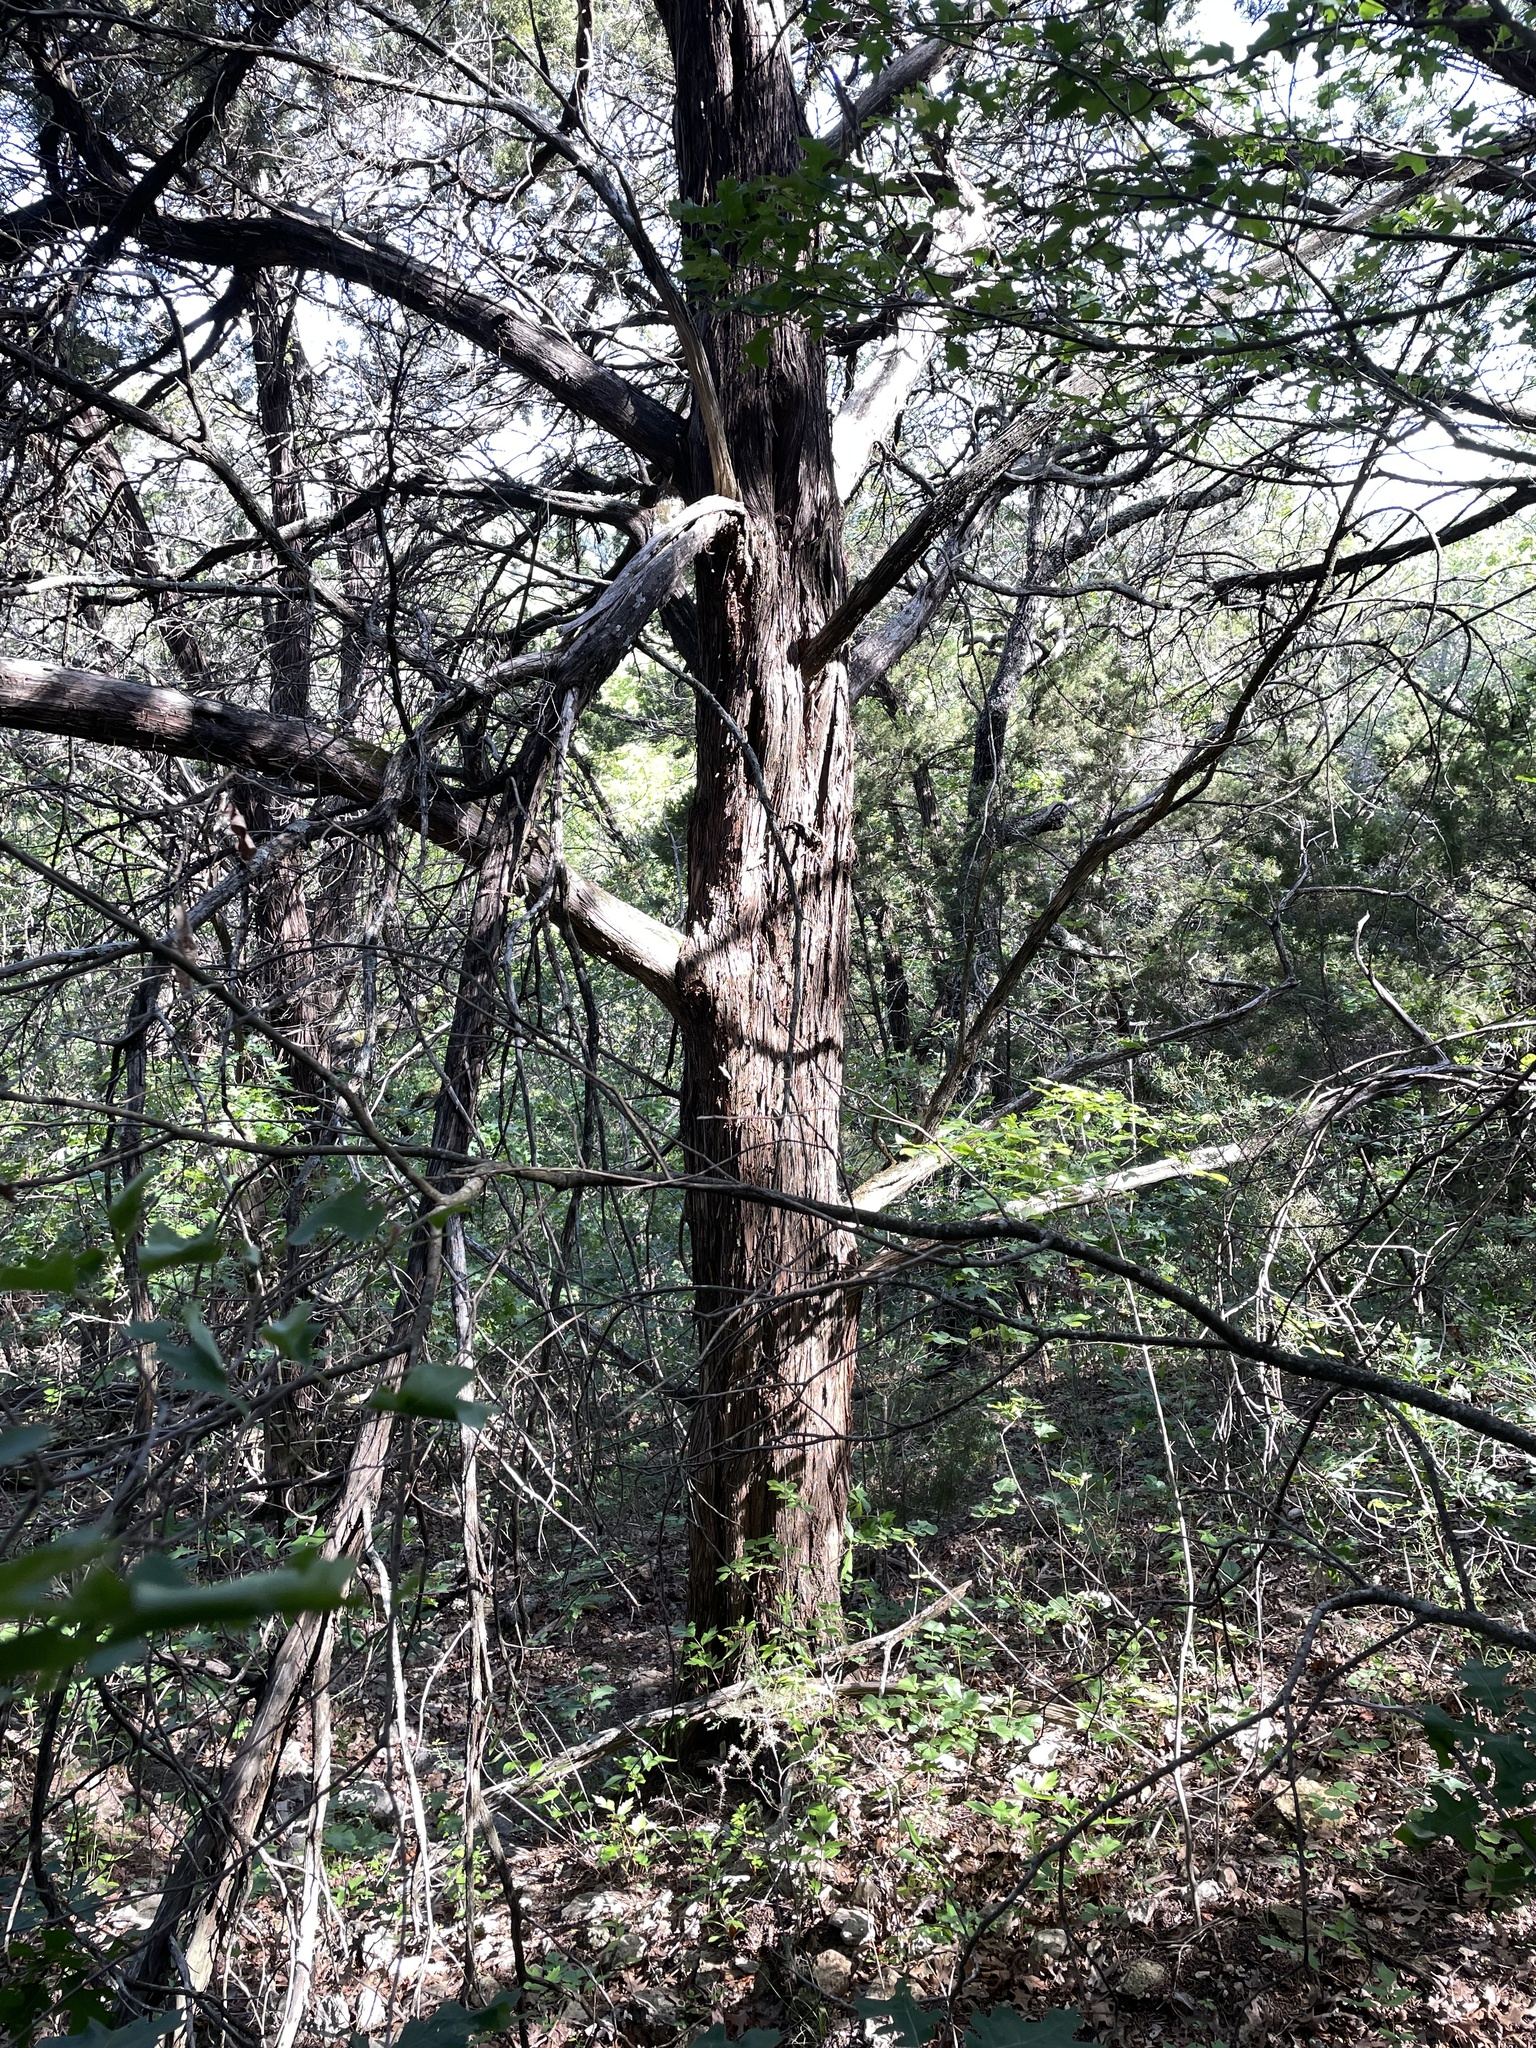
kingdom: Plantae
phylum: Tracheophyta
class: Pinopsida
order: Pinales
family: Cupressaceae
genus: Juniperus
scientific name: Juniperus ashei
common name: Mexican juniper
